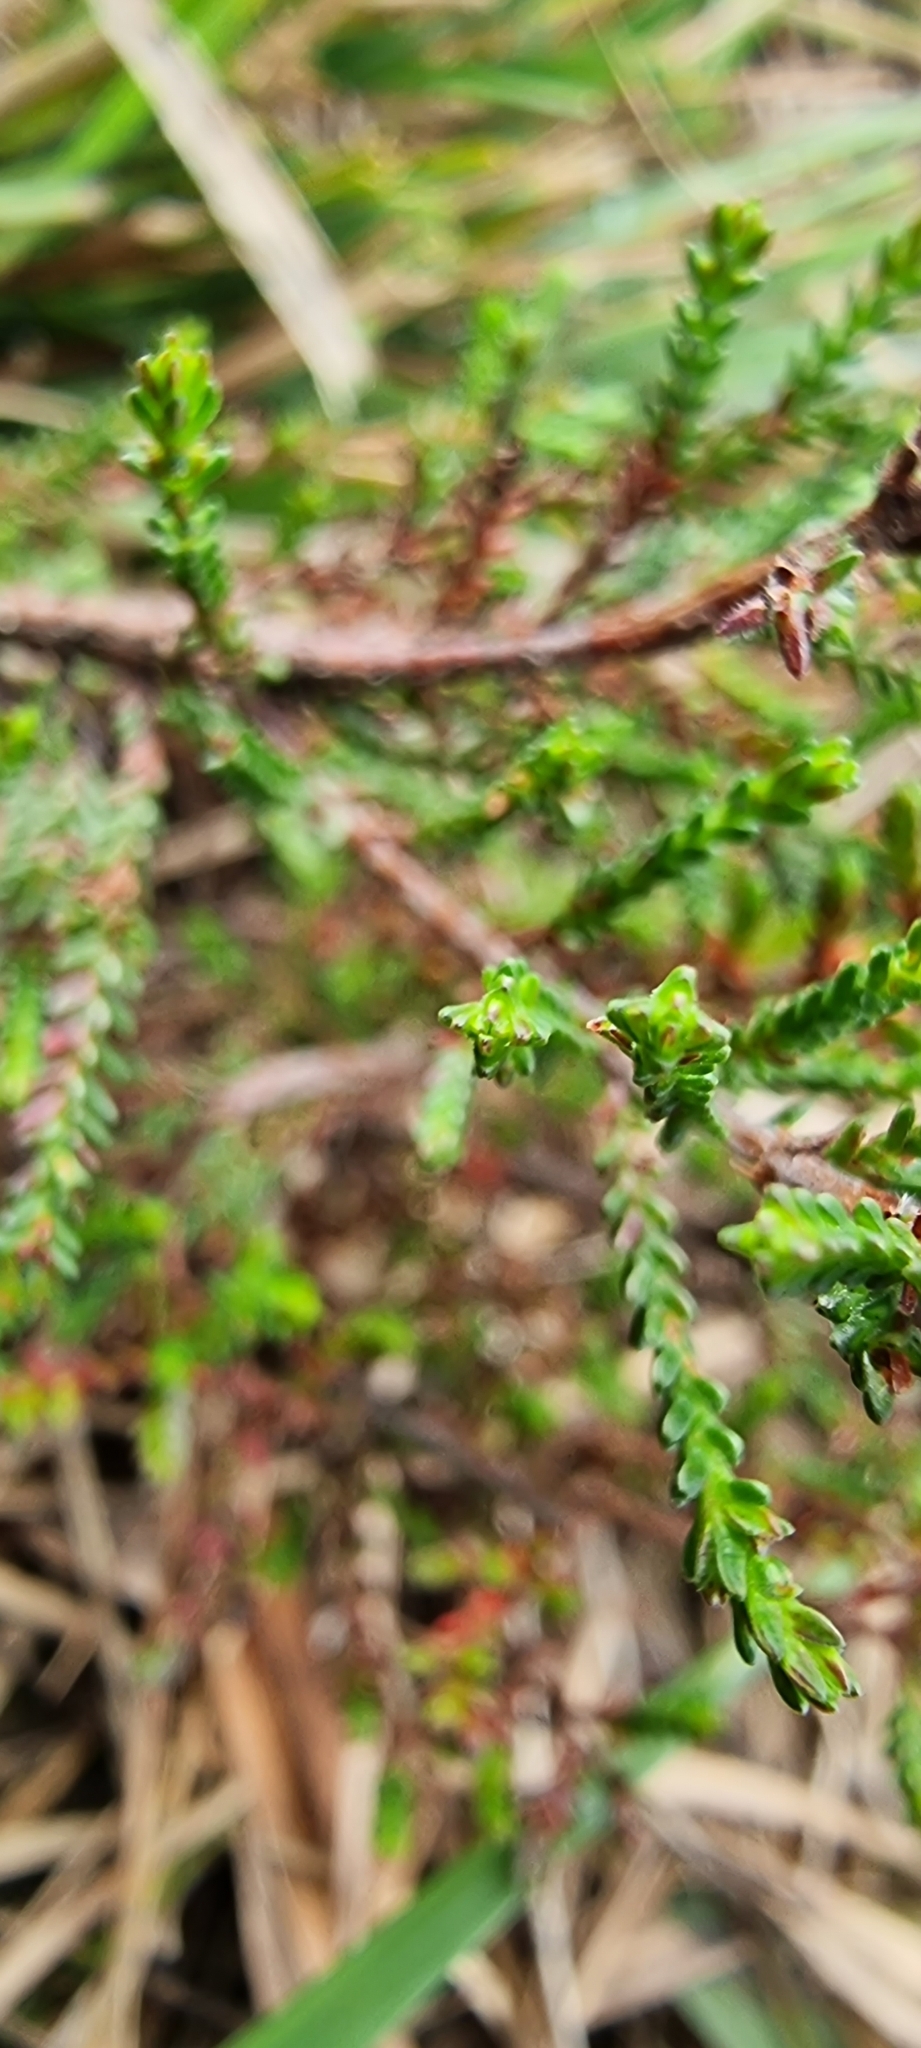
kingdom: Plantae
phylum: Tracheophyta
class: Magnoliopsida
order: Ericales
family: Ericaceae
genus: Calluna
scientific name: Calluna vulgaris
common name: Heather
